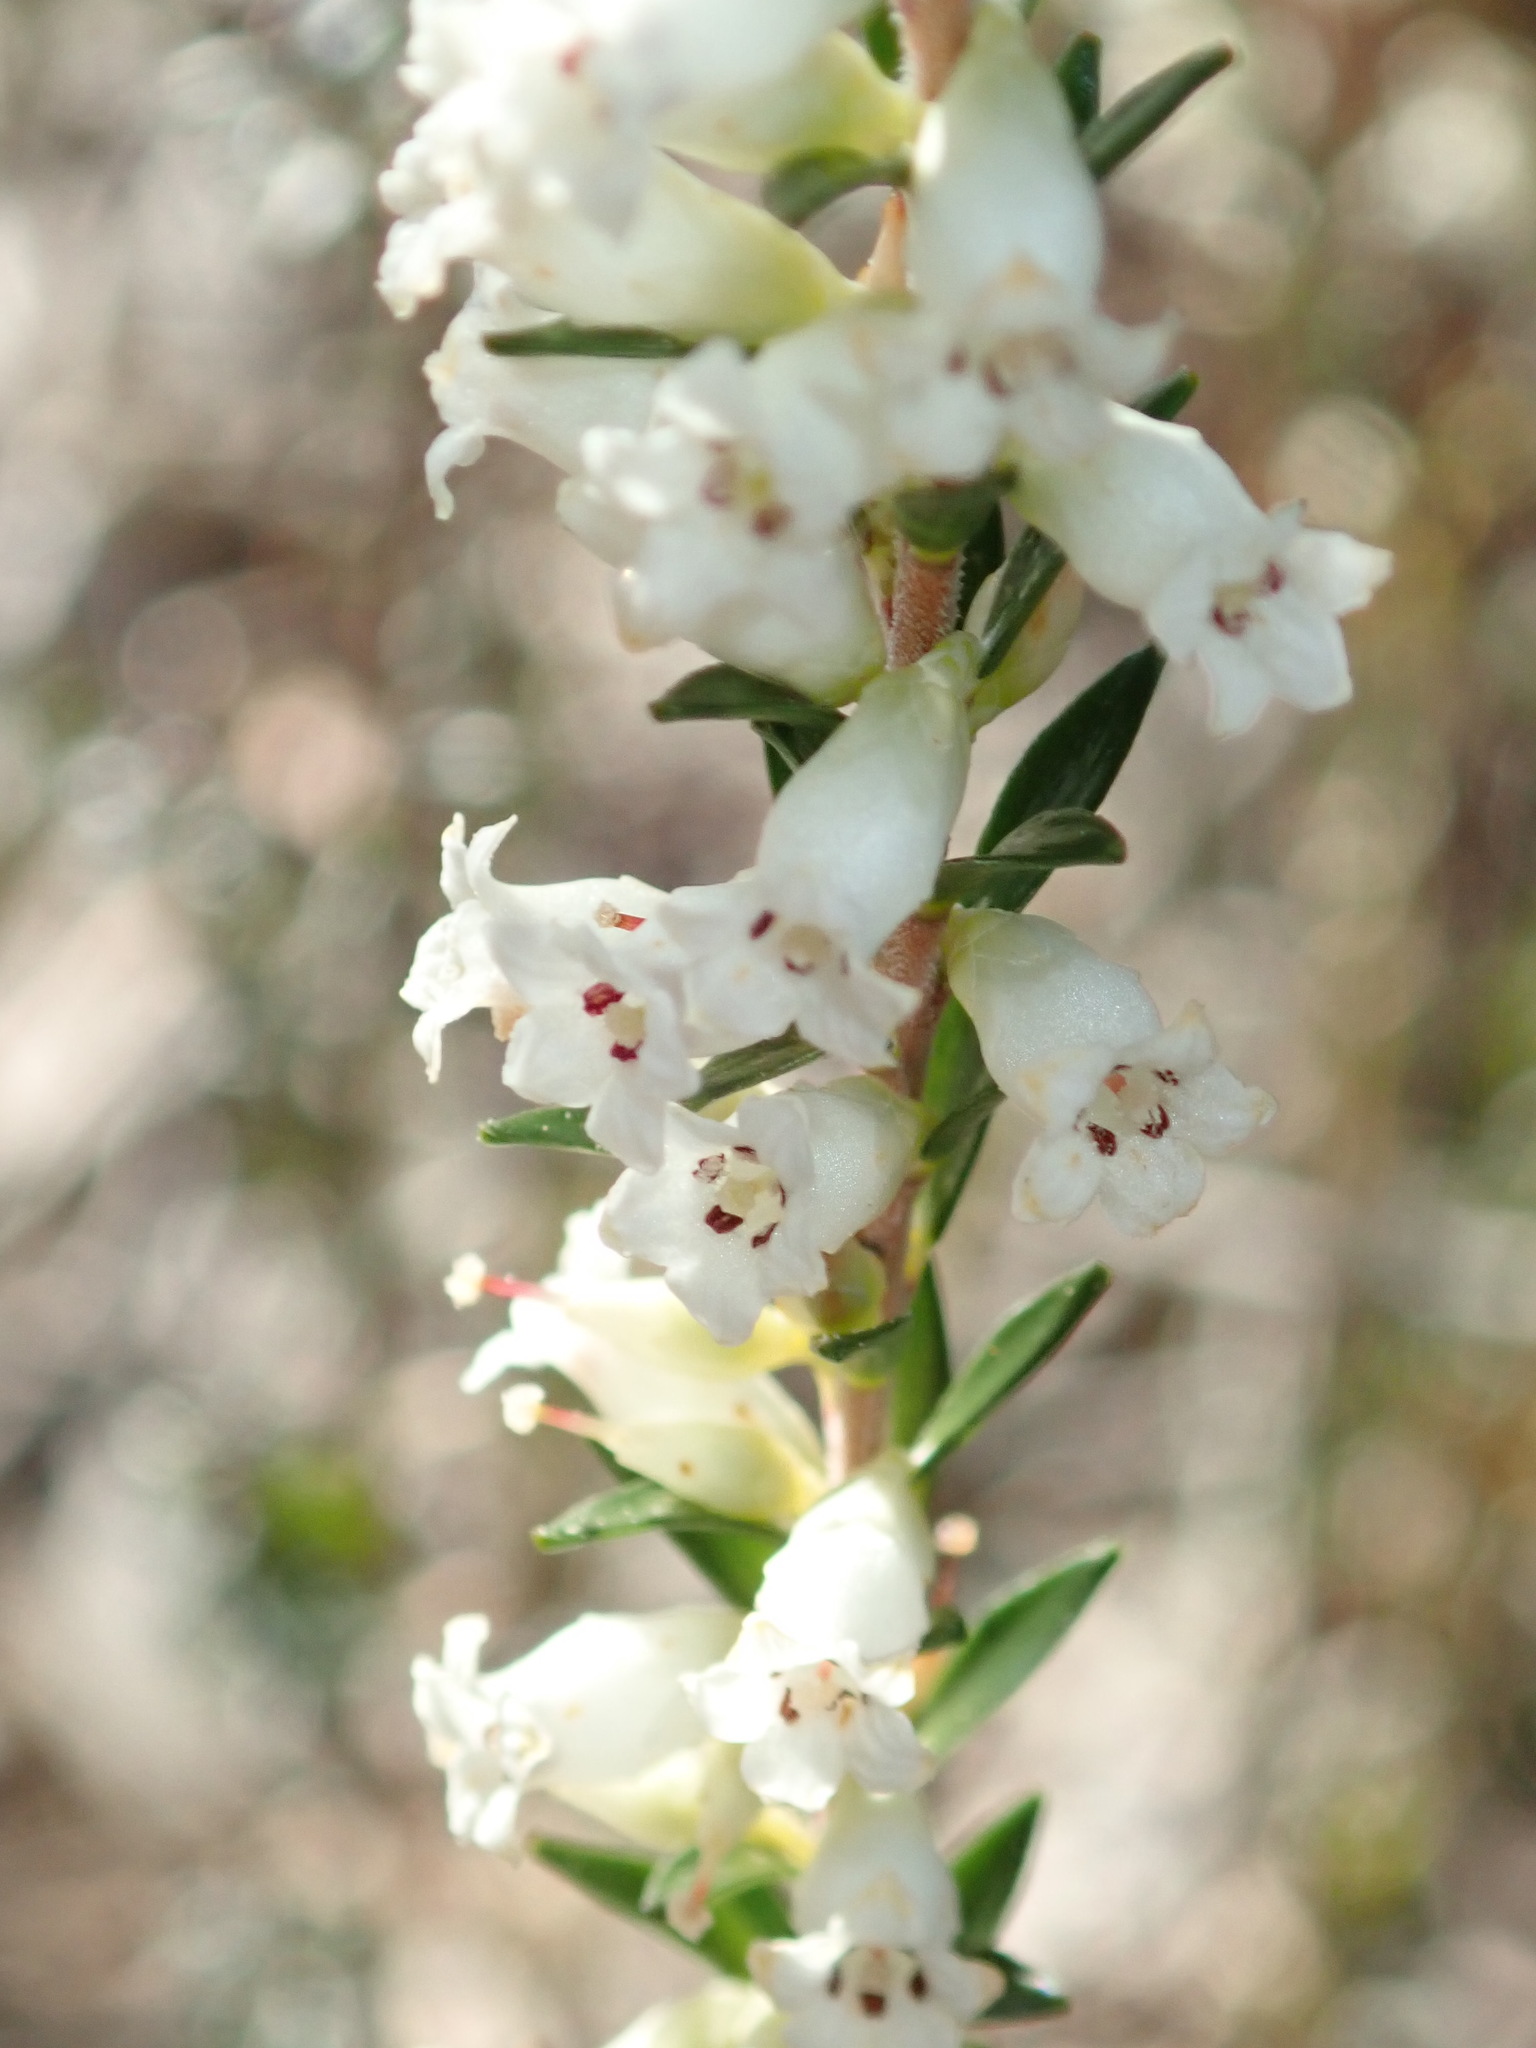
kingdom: Plantae
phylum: Tracheophyta
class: Magnoliopsida
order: Ericales
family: Ericaceae
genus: Epacris
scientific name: Epacris obtusifolia
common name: Blunt-leaf australian-heath
